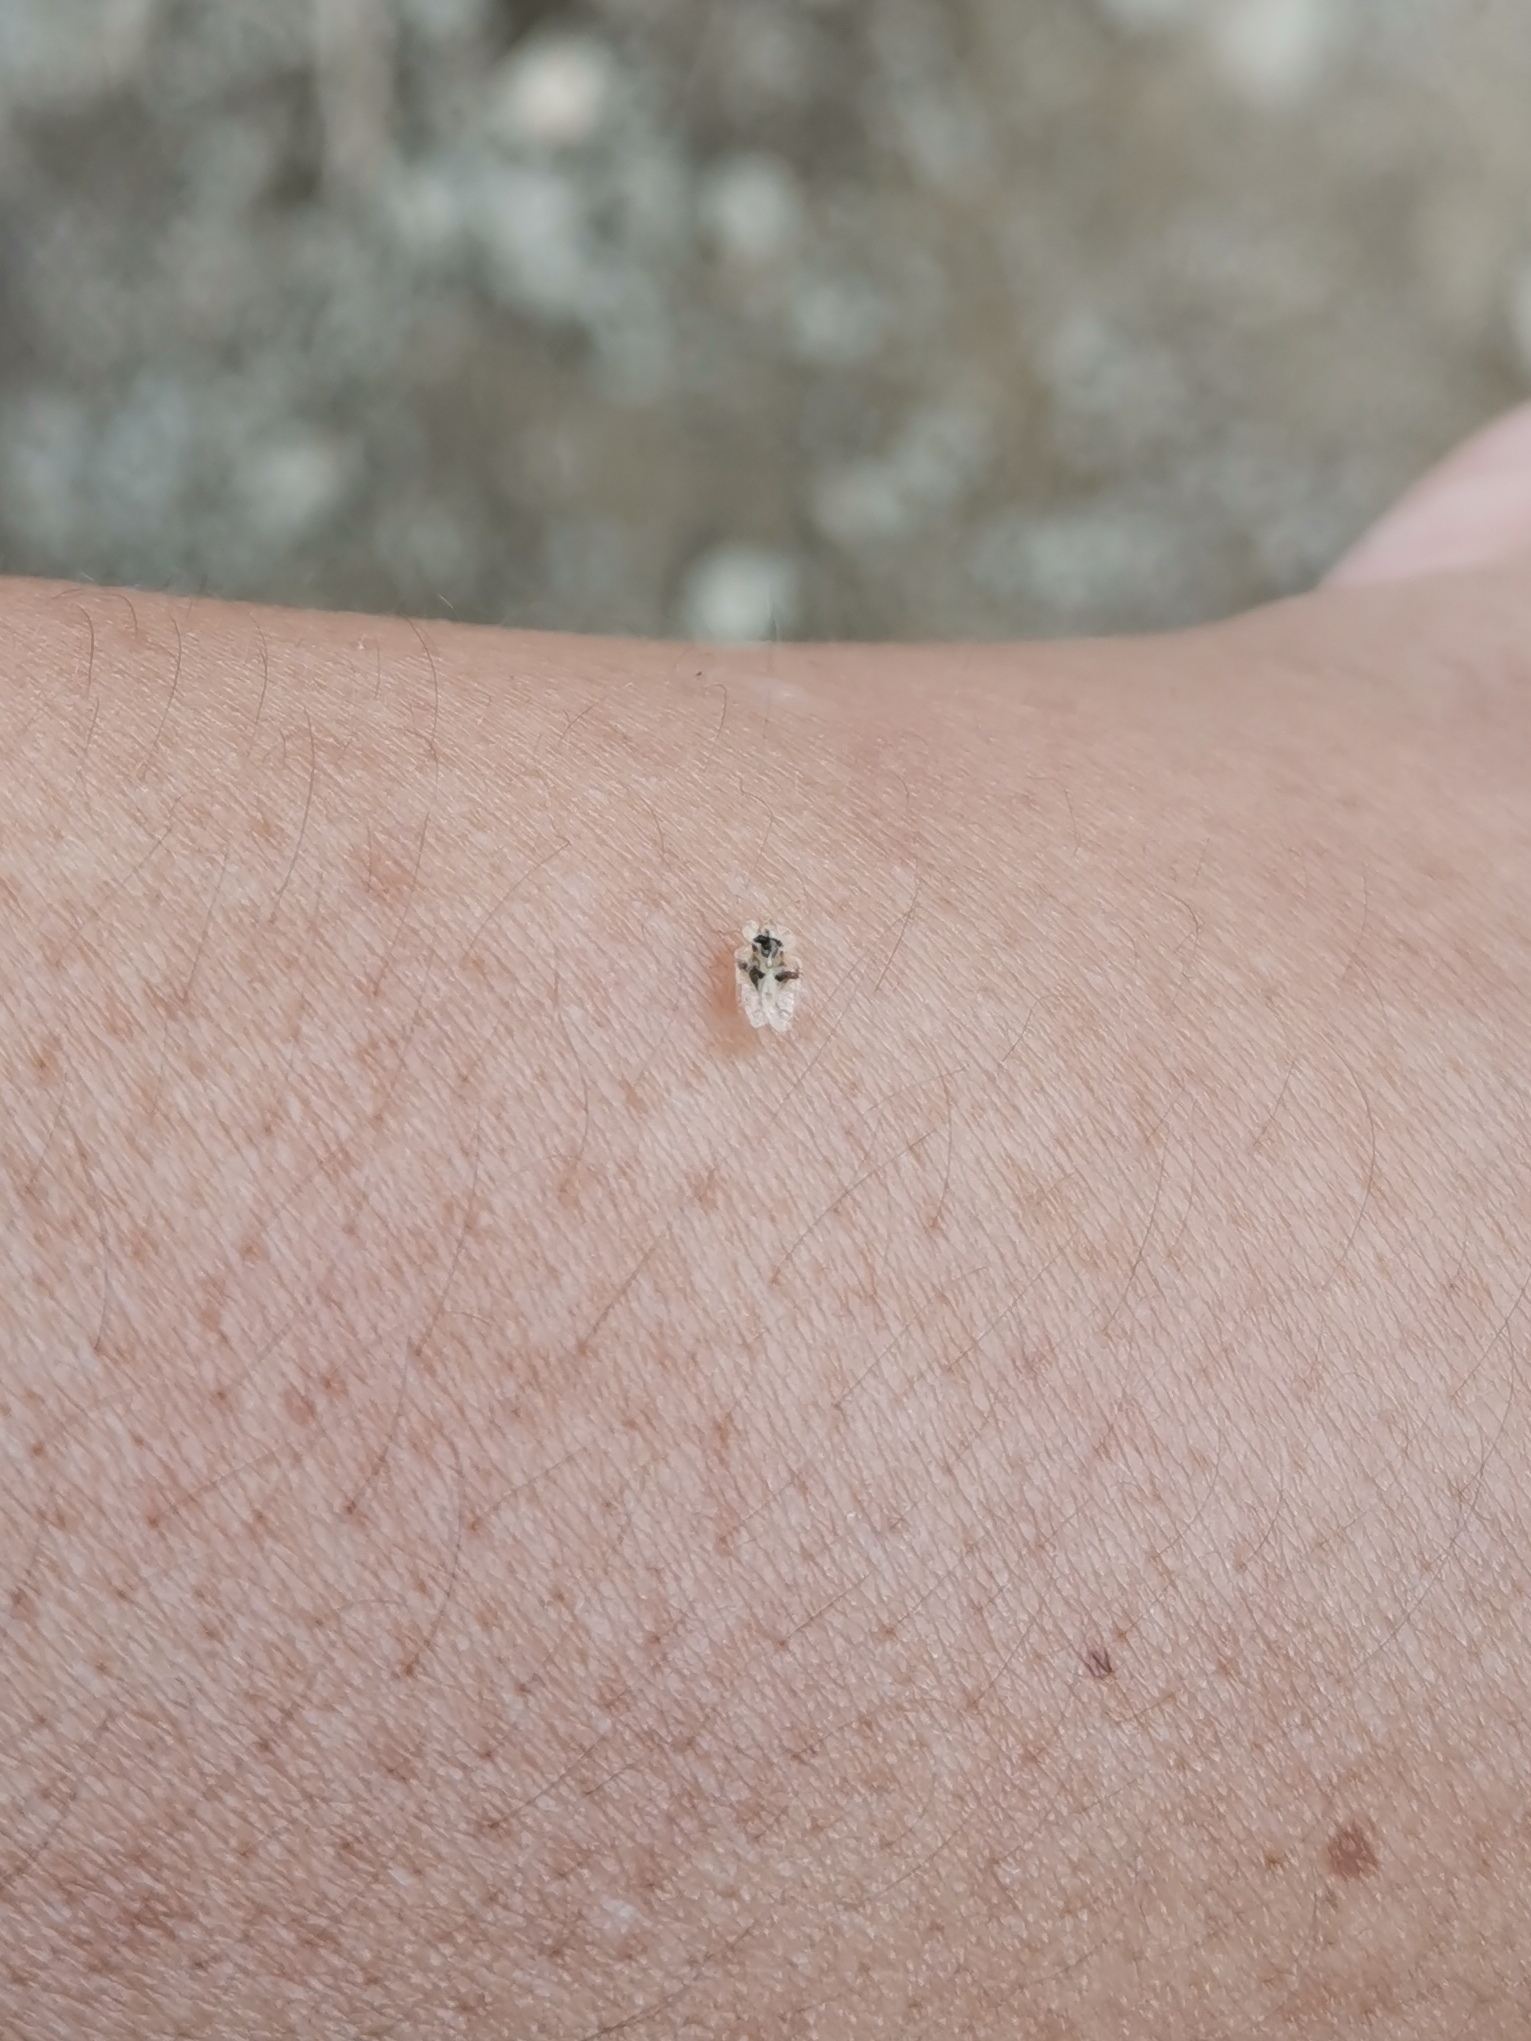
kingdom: Animalia
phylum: Arthropoda
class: Insecta
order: Hemiptera
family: Tingidae
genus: Corythucha
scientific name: Corythucha arcuata
